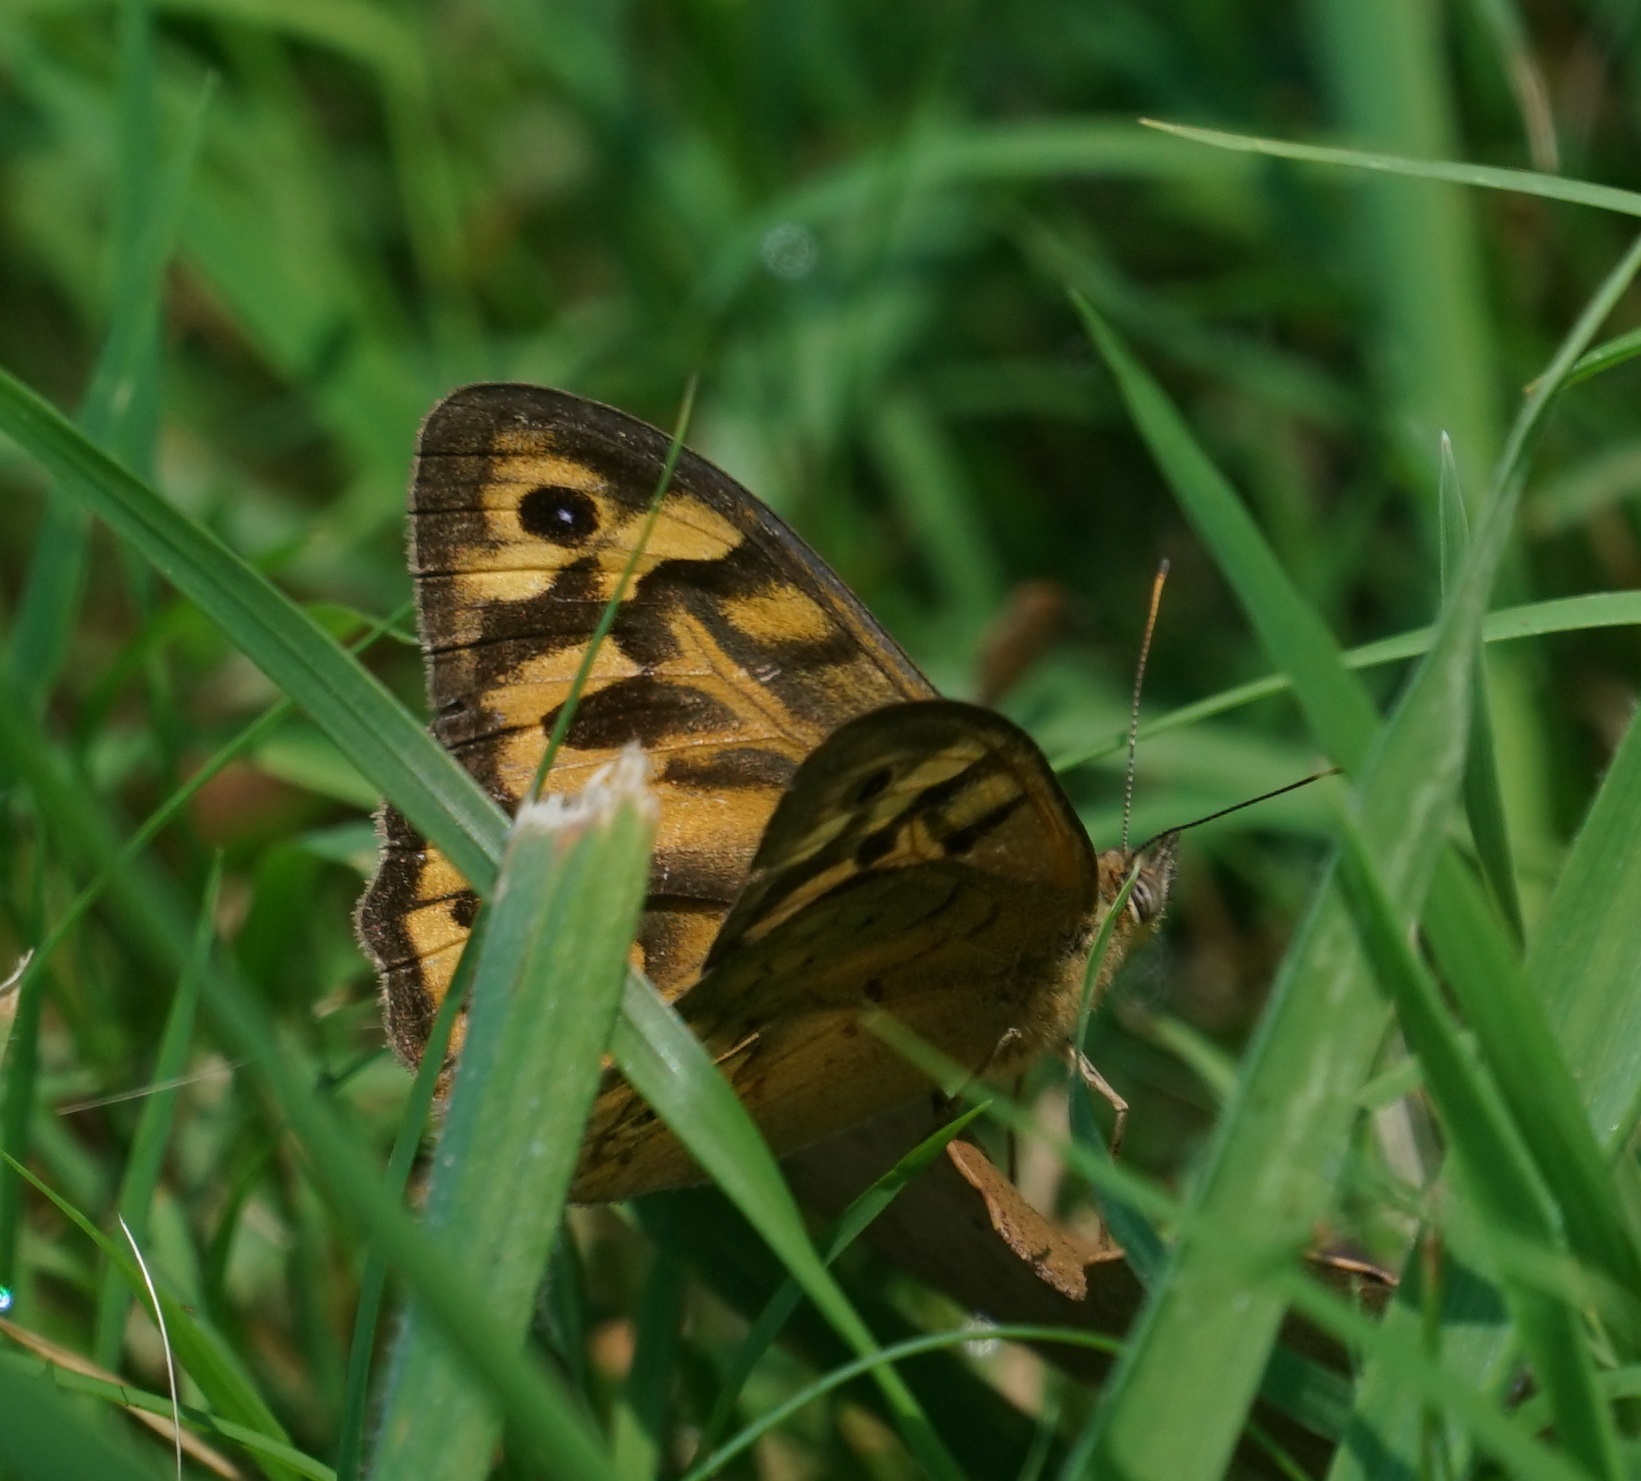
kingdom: Animalia
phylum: Arthropoda
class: Insecta
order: Lepidoptera
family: Nymphalidae
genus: Heteronympha
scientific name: Heteronympha merope
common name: Common brown
